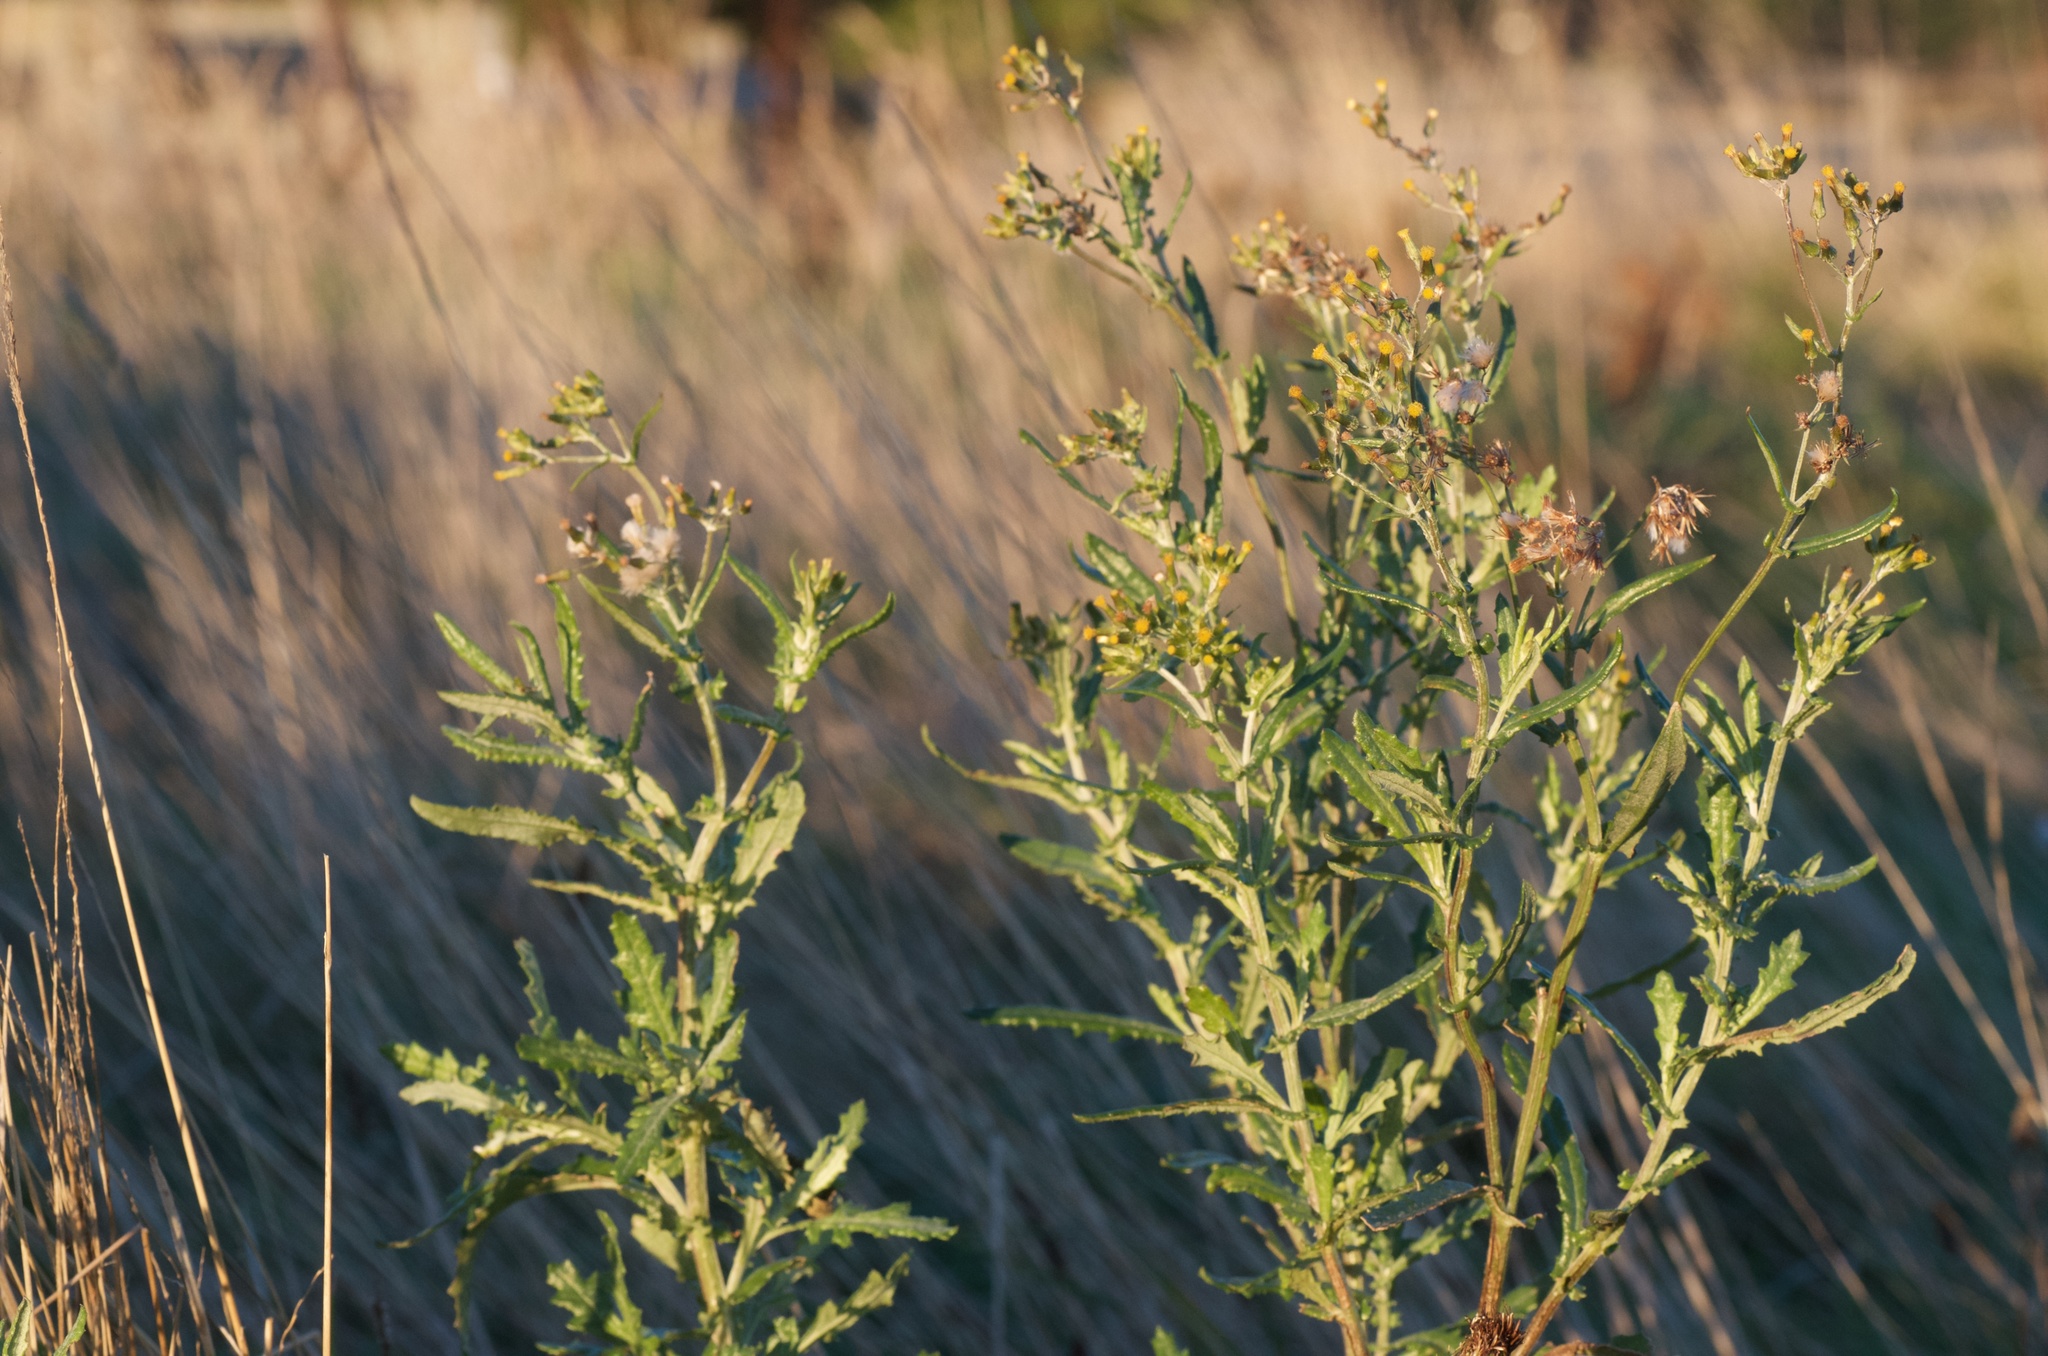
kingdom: Plantae
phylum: Tracheophyta
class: Magnoliopsida
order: Asterales
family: Asteraceae
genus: Senecio
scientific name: Senecio glomeratus
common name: Cutleaf burnweed
